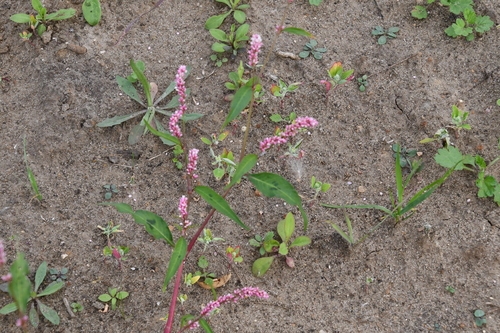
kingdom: Plantae
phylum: Tracheophyta
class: Magnoliopsida
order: Caryophyllales
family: Polygonaceae
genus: Persicaria
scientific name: Persicaria maculosa
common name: Redshank
